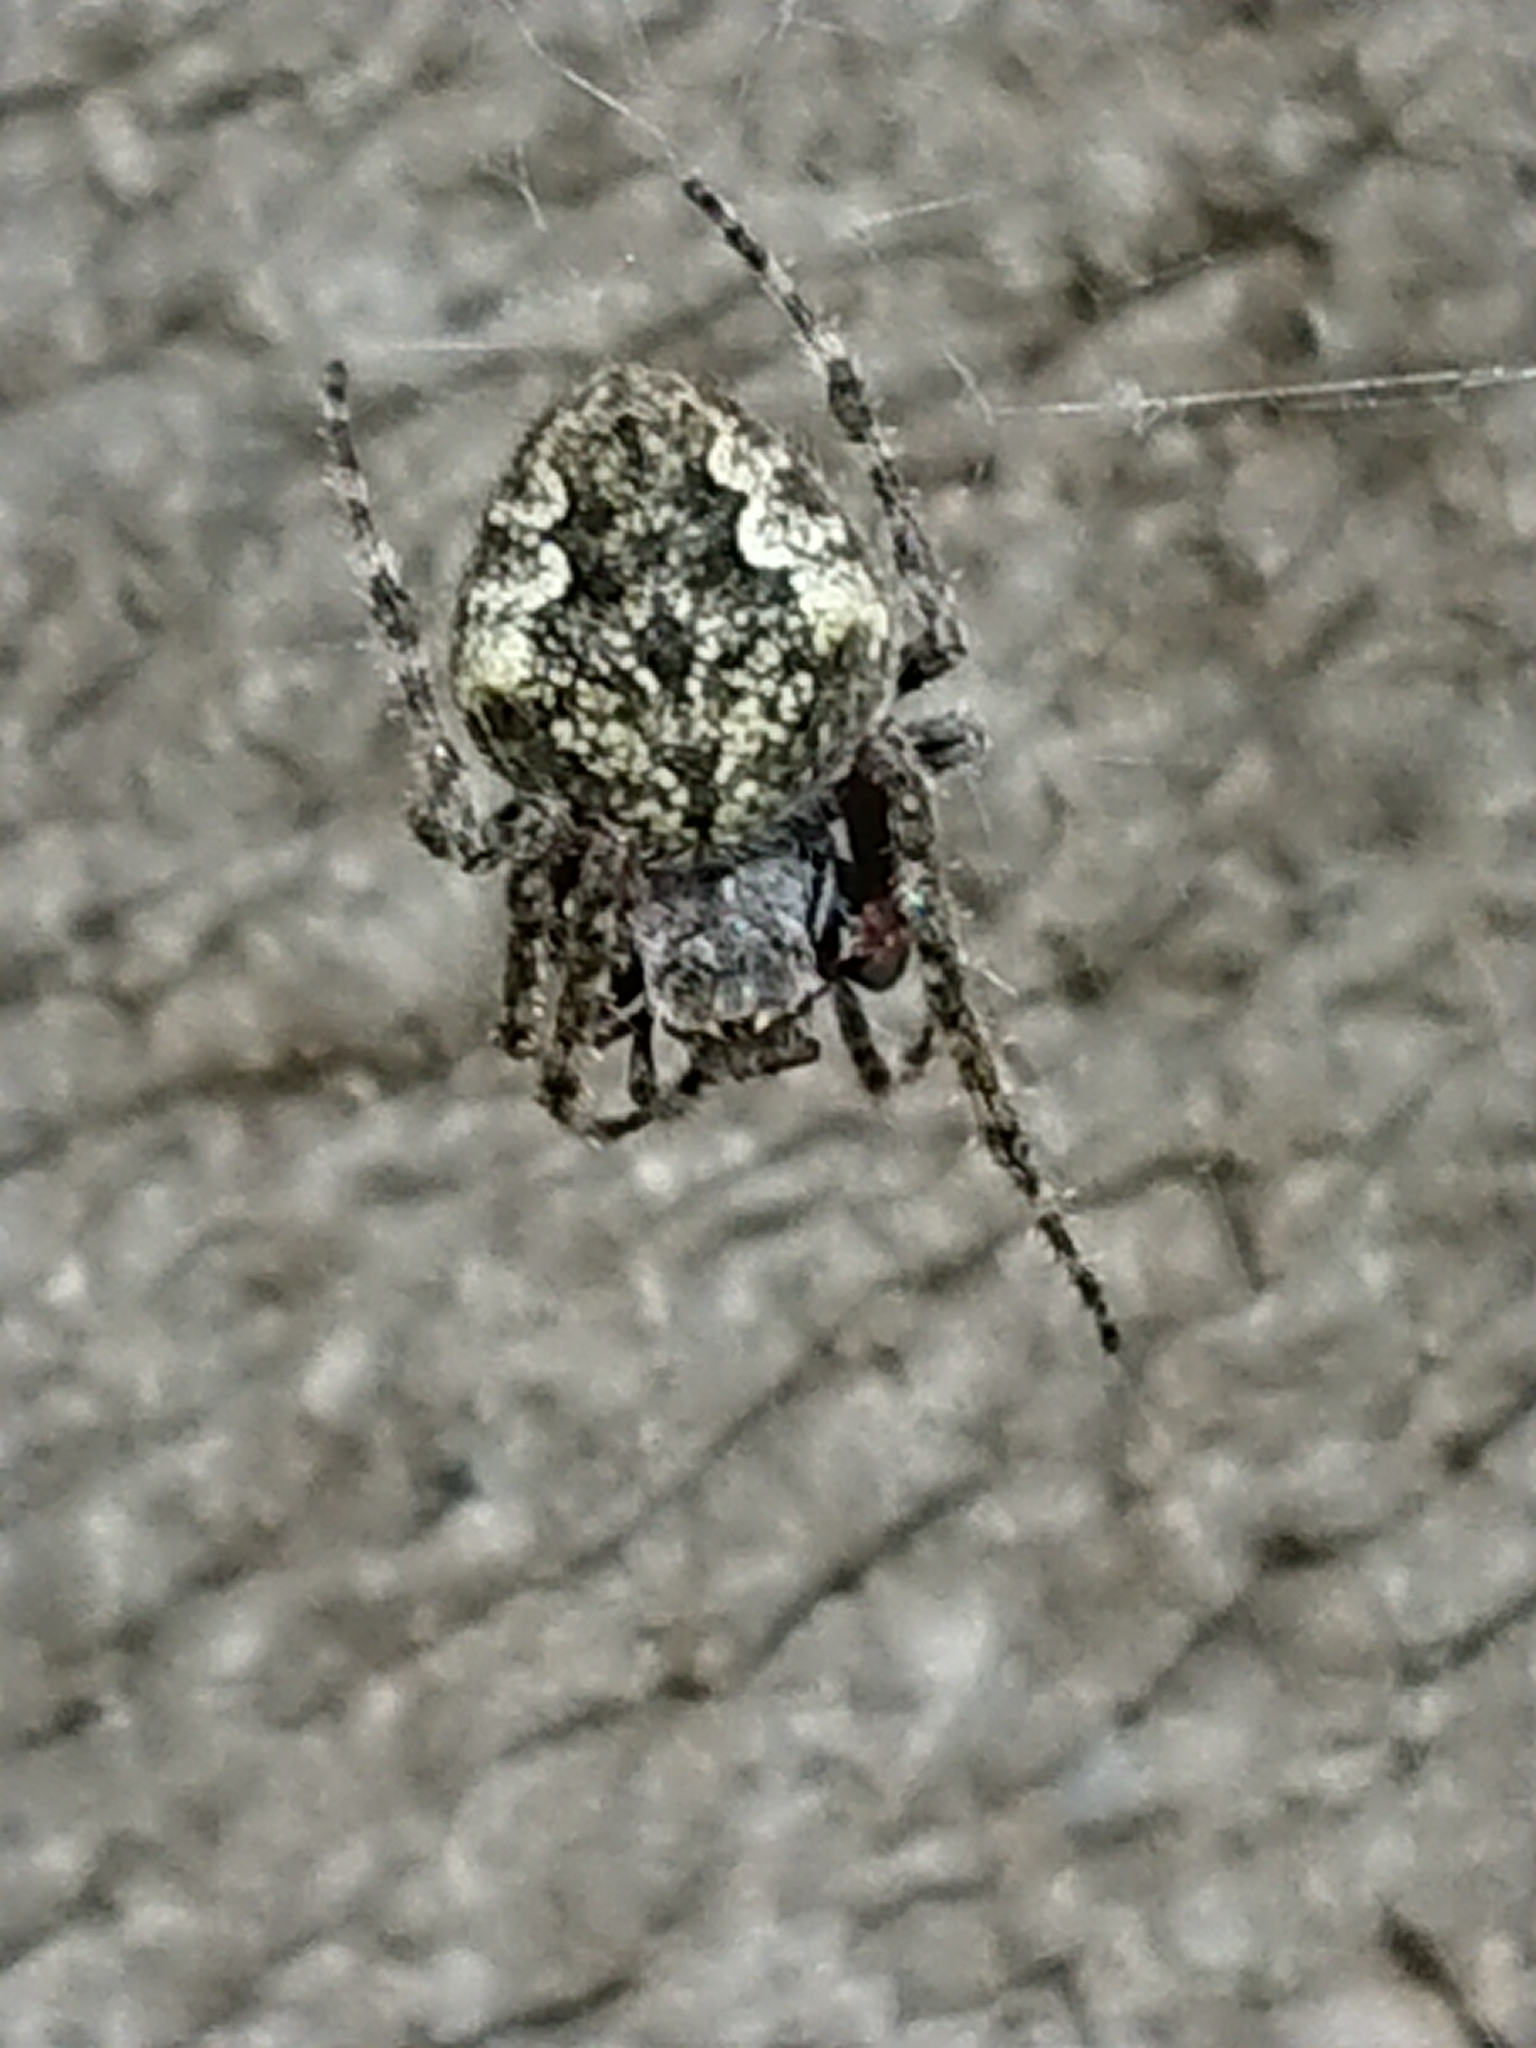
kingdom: Animalia
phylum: Arthropoda
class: Arachnida
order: Araneae
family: Araneidae
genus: Eriophora
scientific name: Eriophora pustulosa
